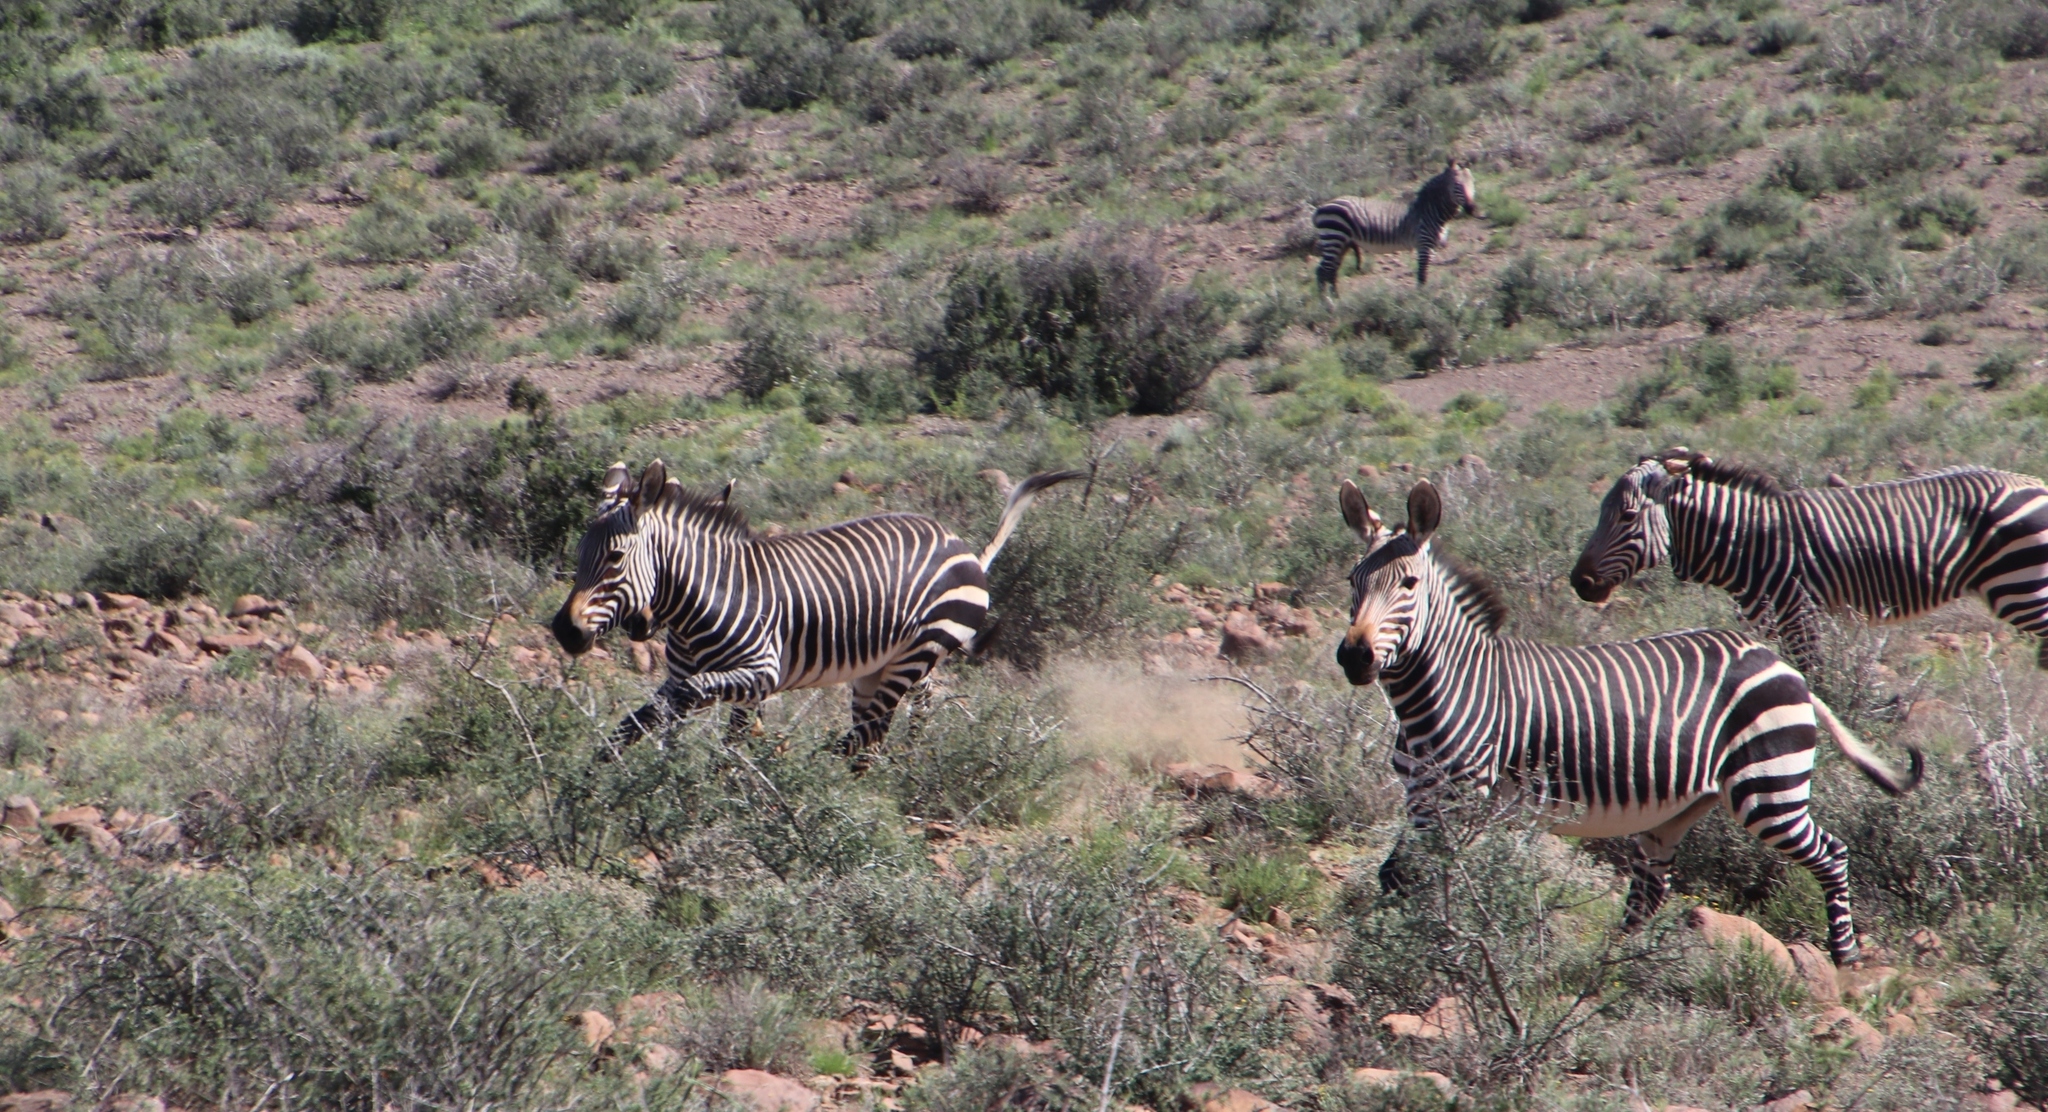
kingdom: Animalia
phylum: Chordata
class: Mammalia
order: Perissodactyla
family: Equidae
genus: Equus
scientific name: Equus zebra
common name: Mountain zebra
